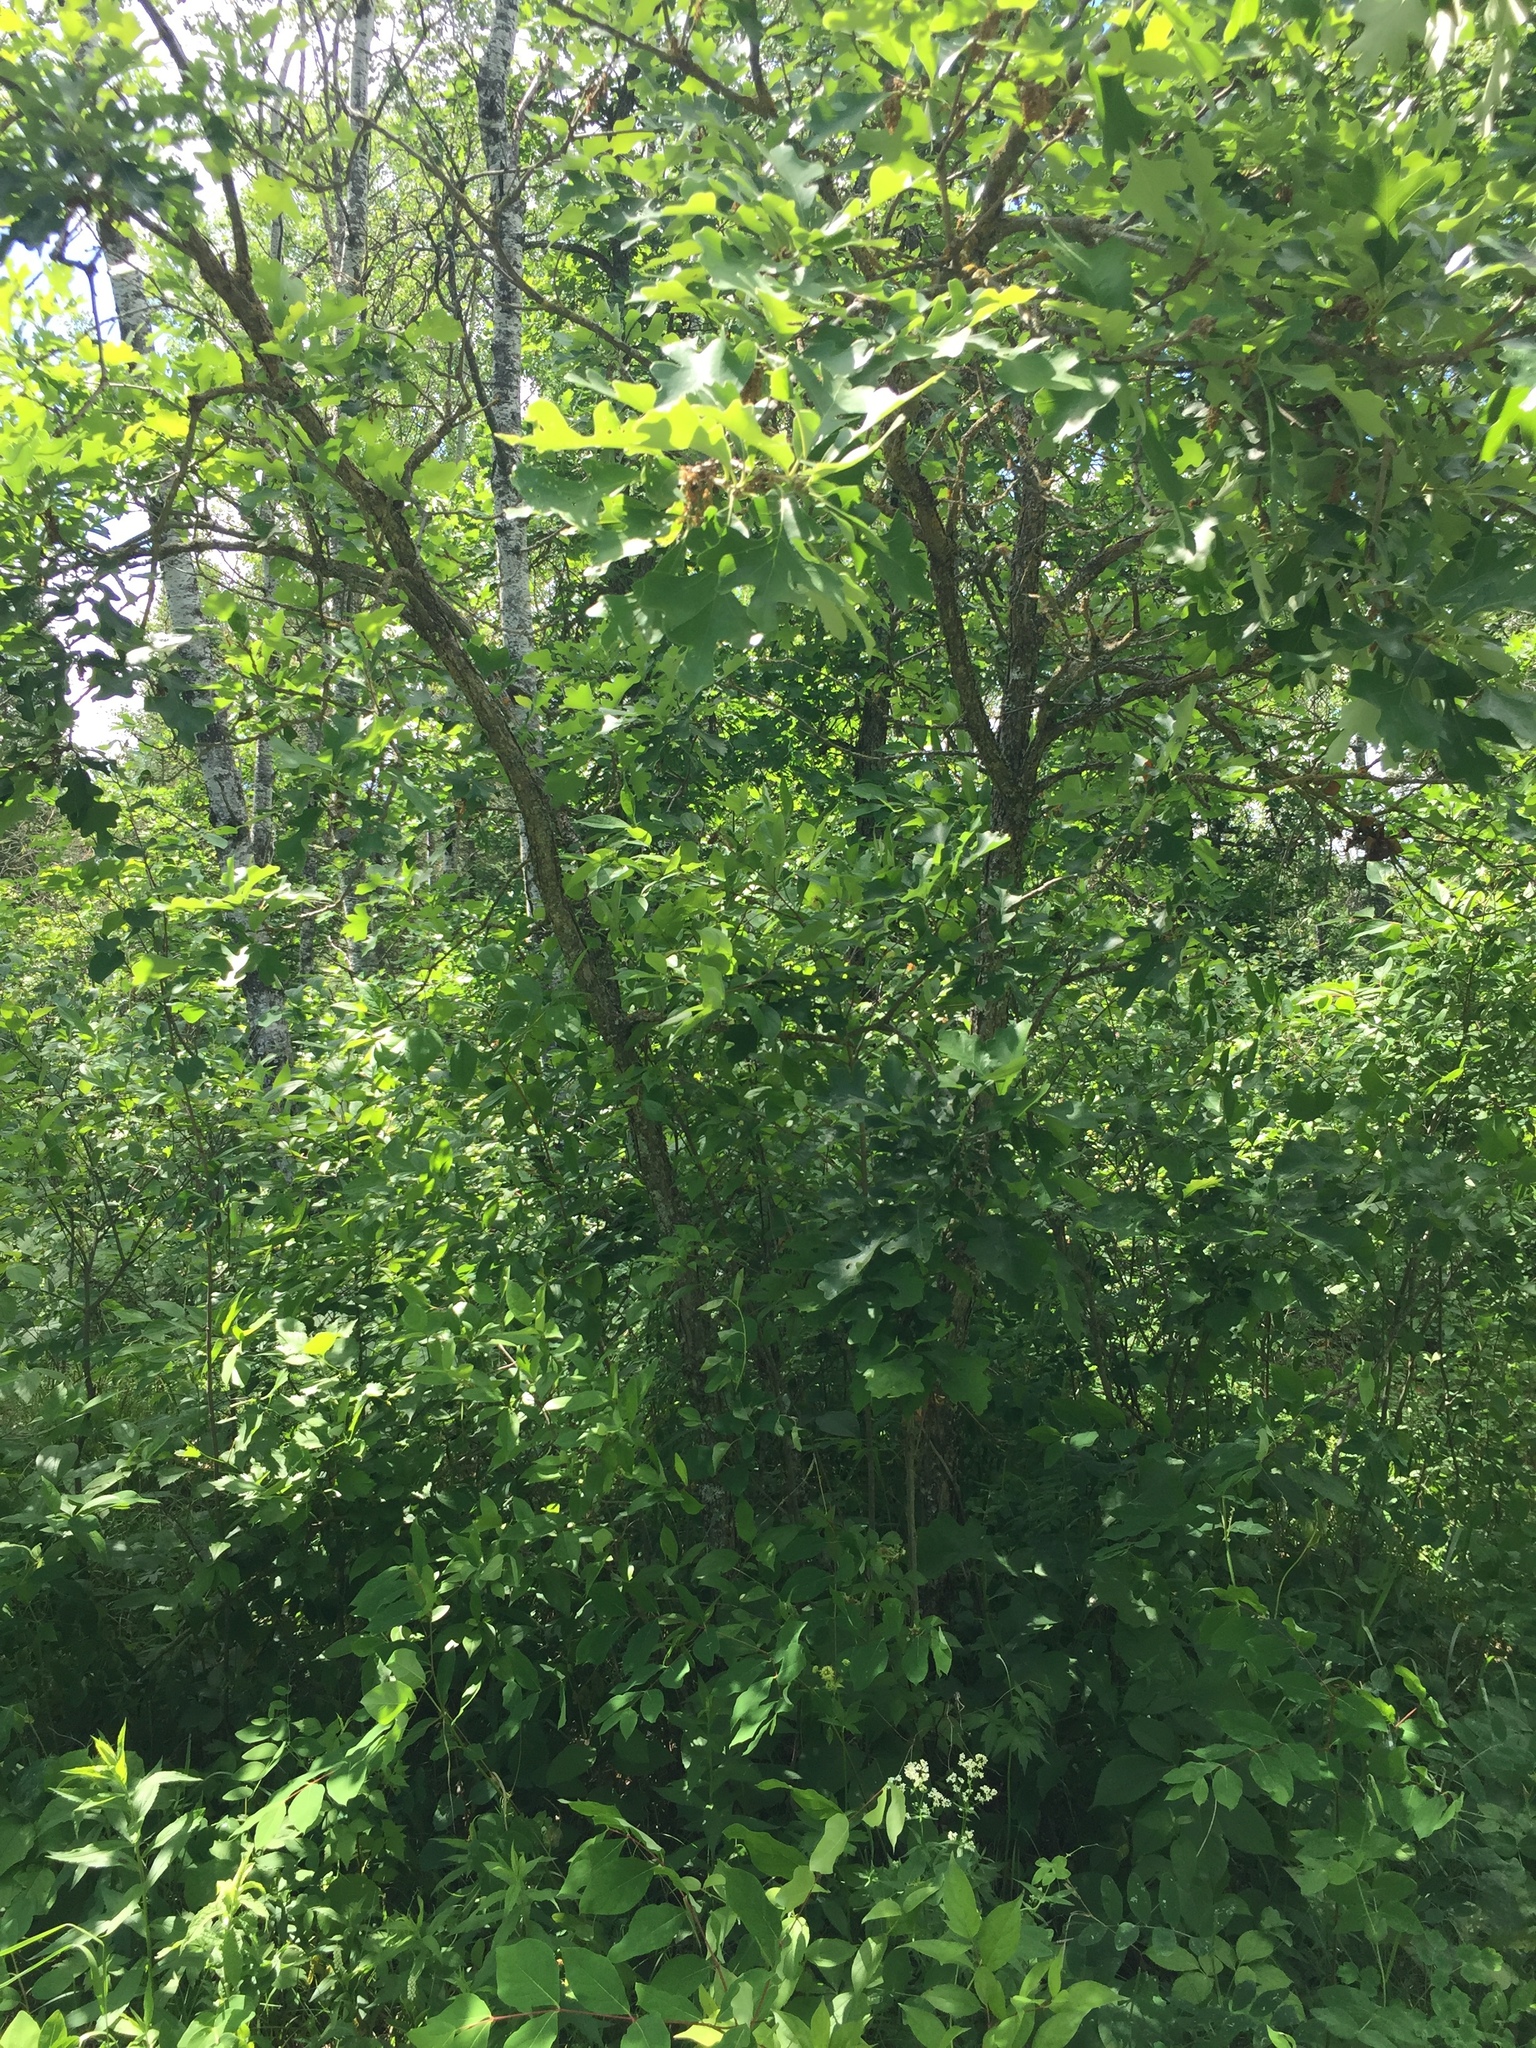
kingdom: Plantae
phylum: Tracheophyta
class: Magnoliopsida
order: Fagales
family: Fagaceae
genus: Quercus
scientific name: Quercus macrocarpa
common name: Bur oak
